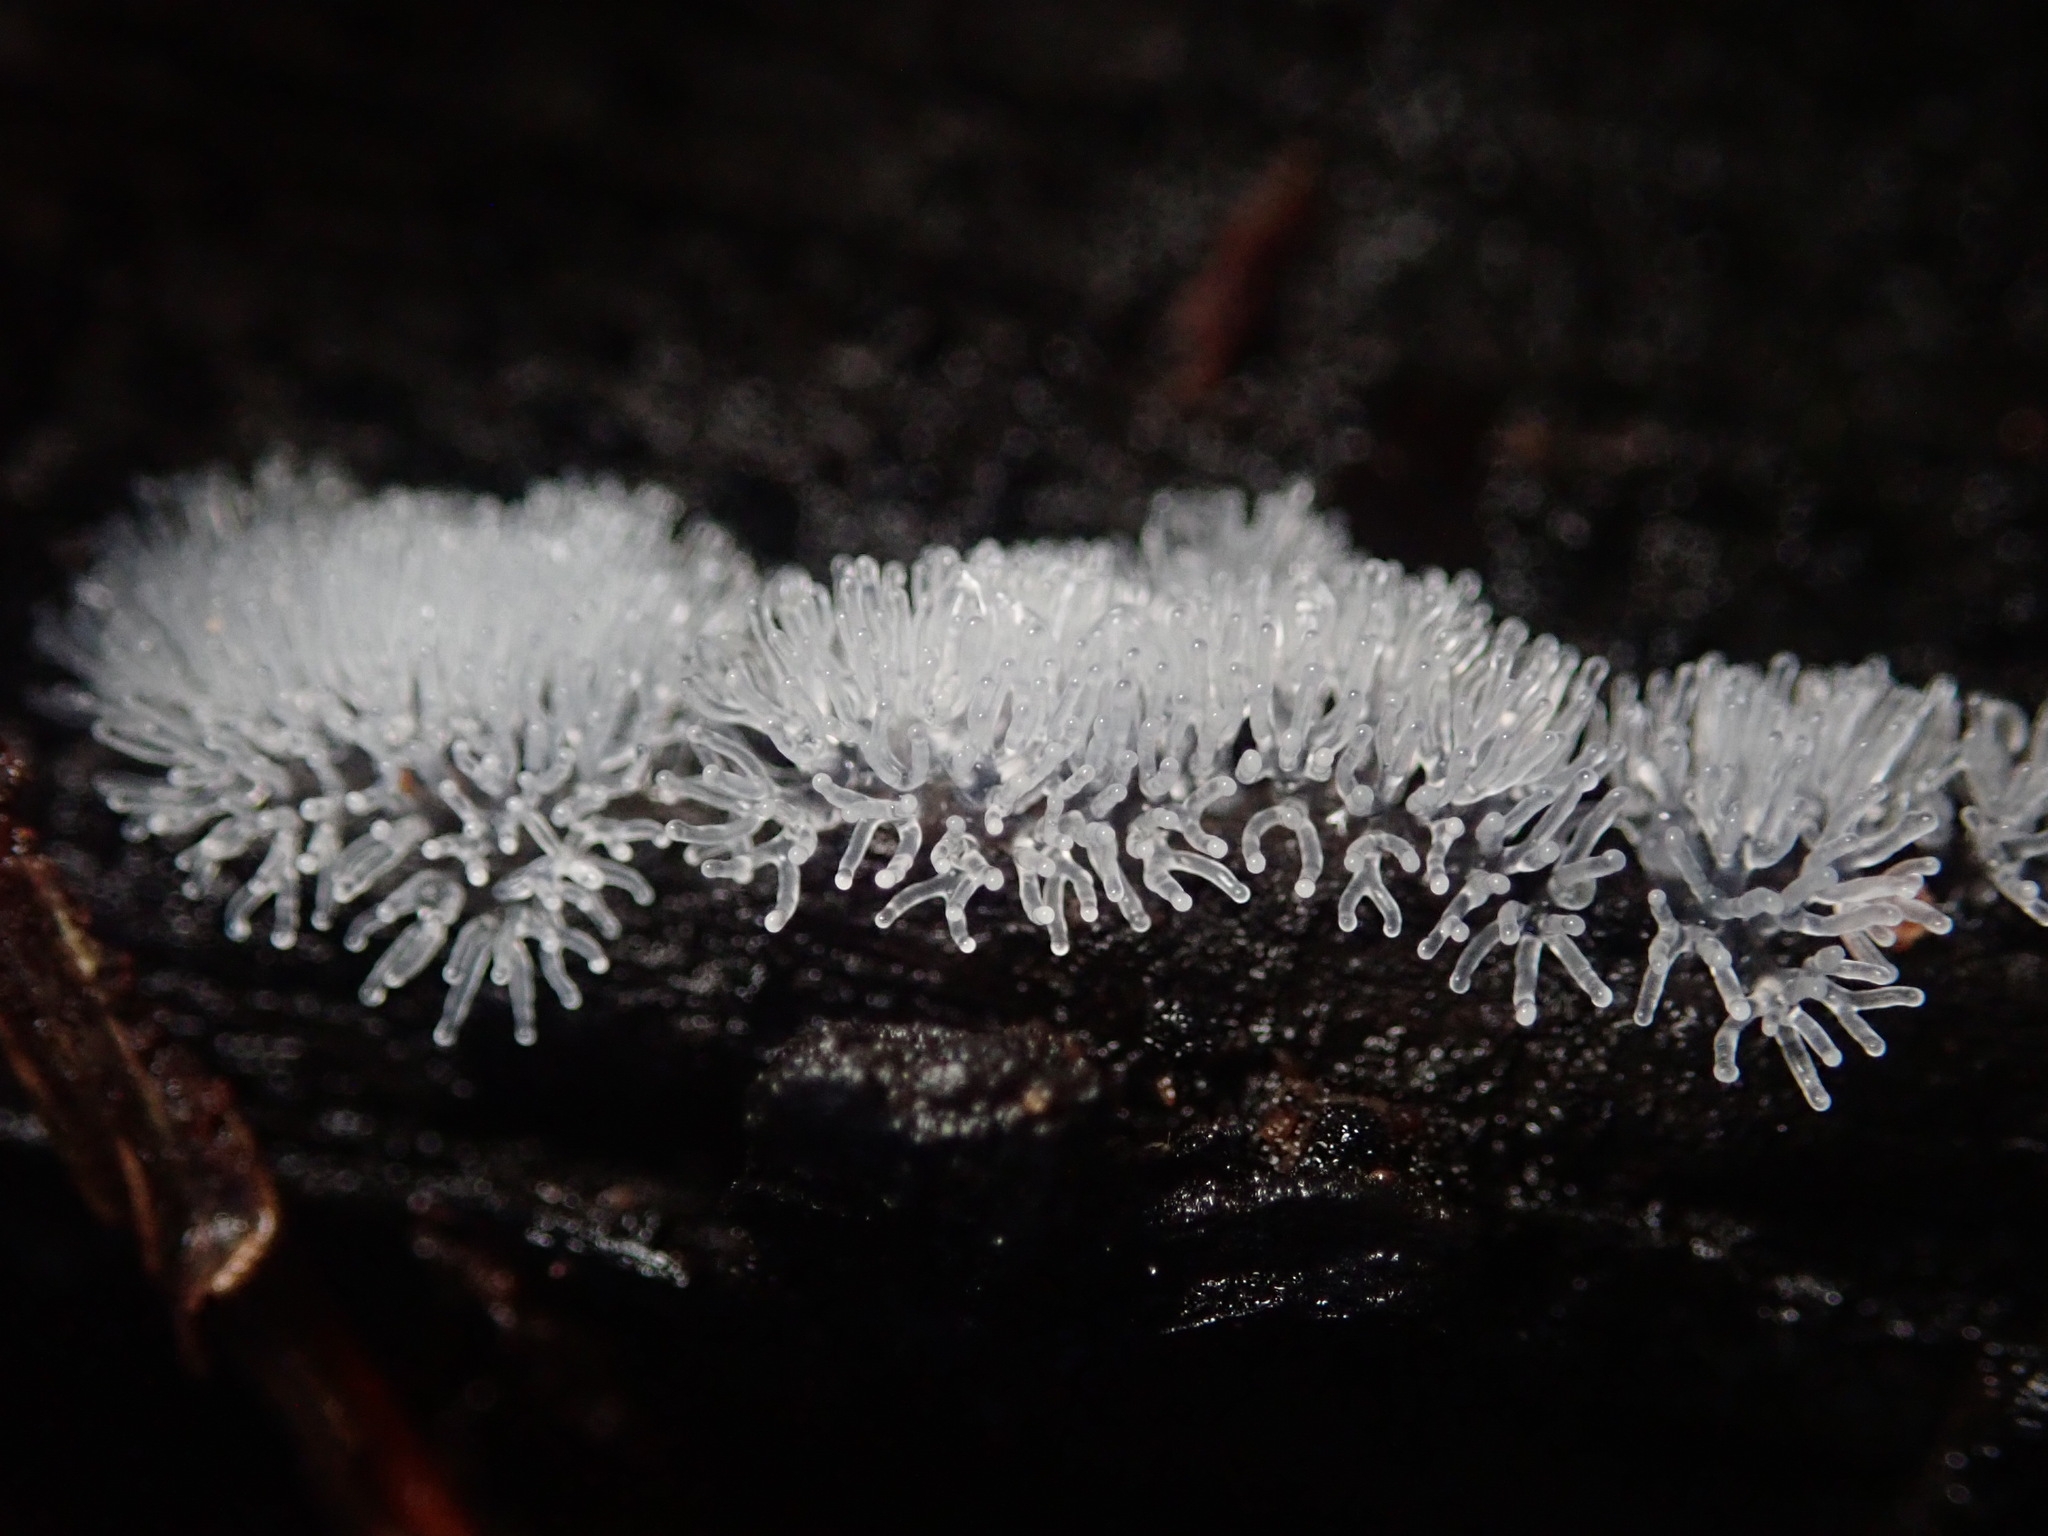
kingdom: Protozoa
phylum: Mycetozoa
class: Protosteliomycetes
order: Ceratiomyxales
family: Ceratiomyxaceae
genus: Ceratiomyxa
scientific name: Ceratiomyxa fruticulosa
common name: Honeycomb coral slime mold
